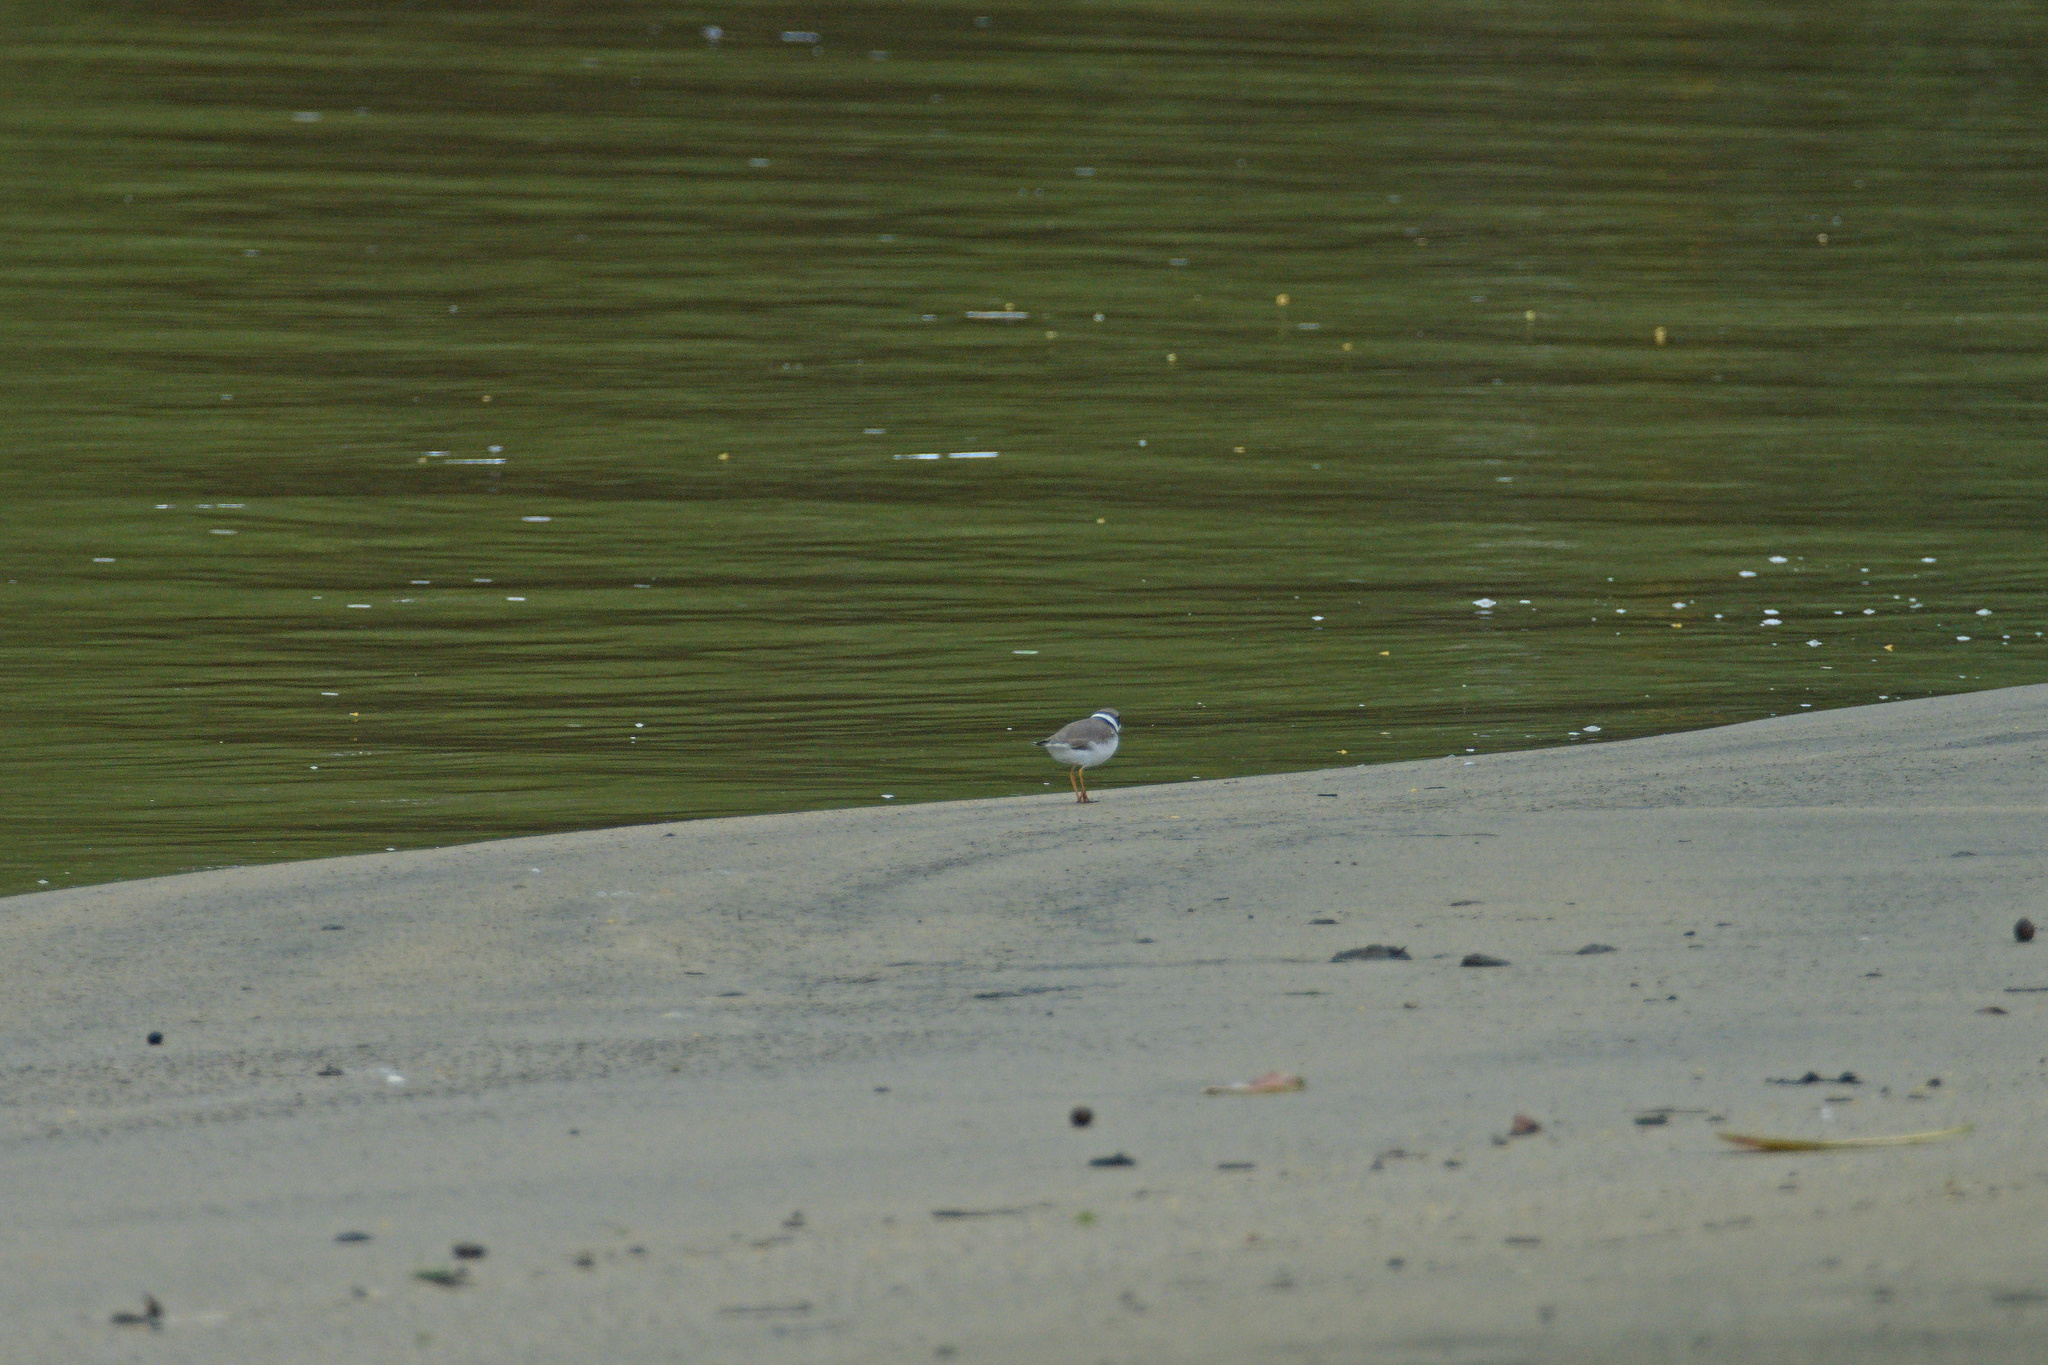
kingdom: Animalia
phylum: Chordata
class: Aves
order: Charadriiformes
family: Charadriidae
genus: Charadrius
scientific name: Charadrius semipalmatus
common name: Semipalmated plover
